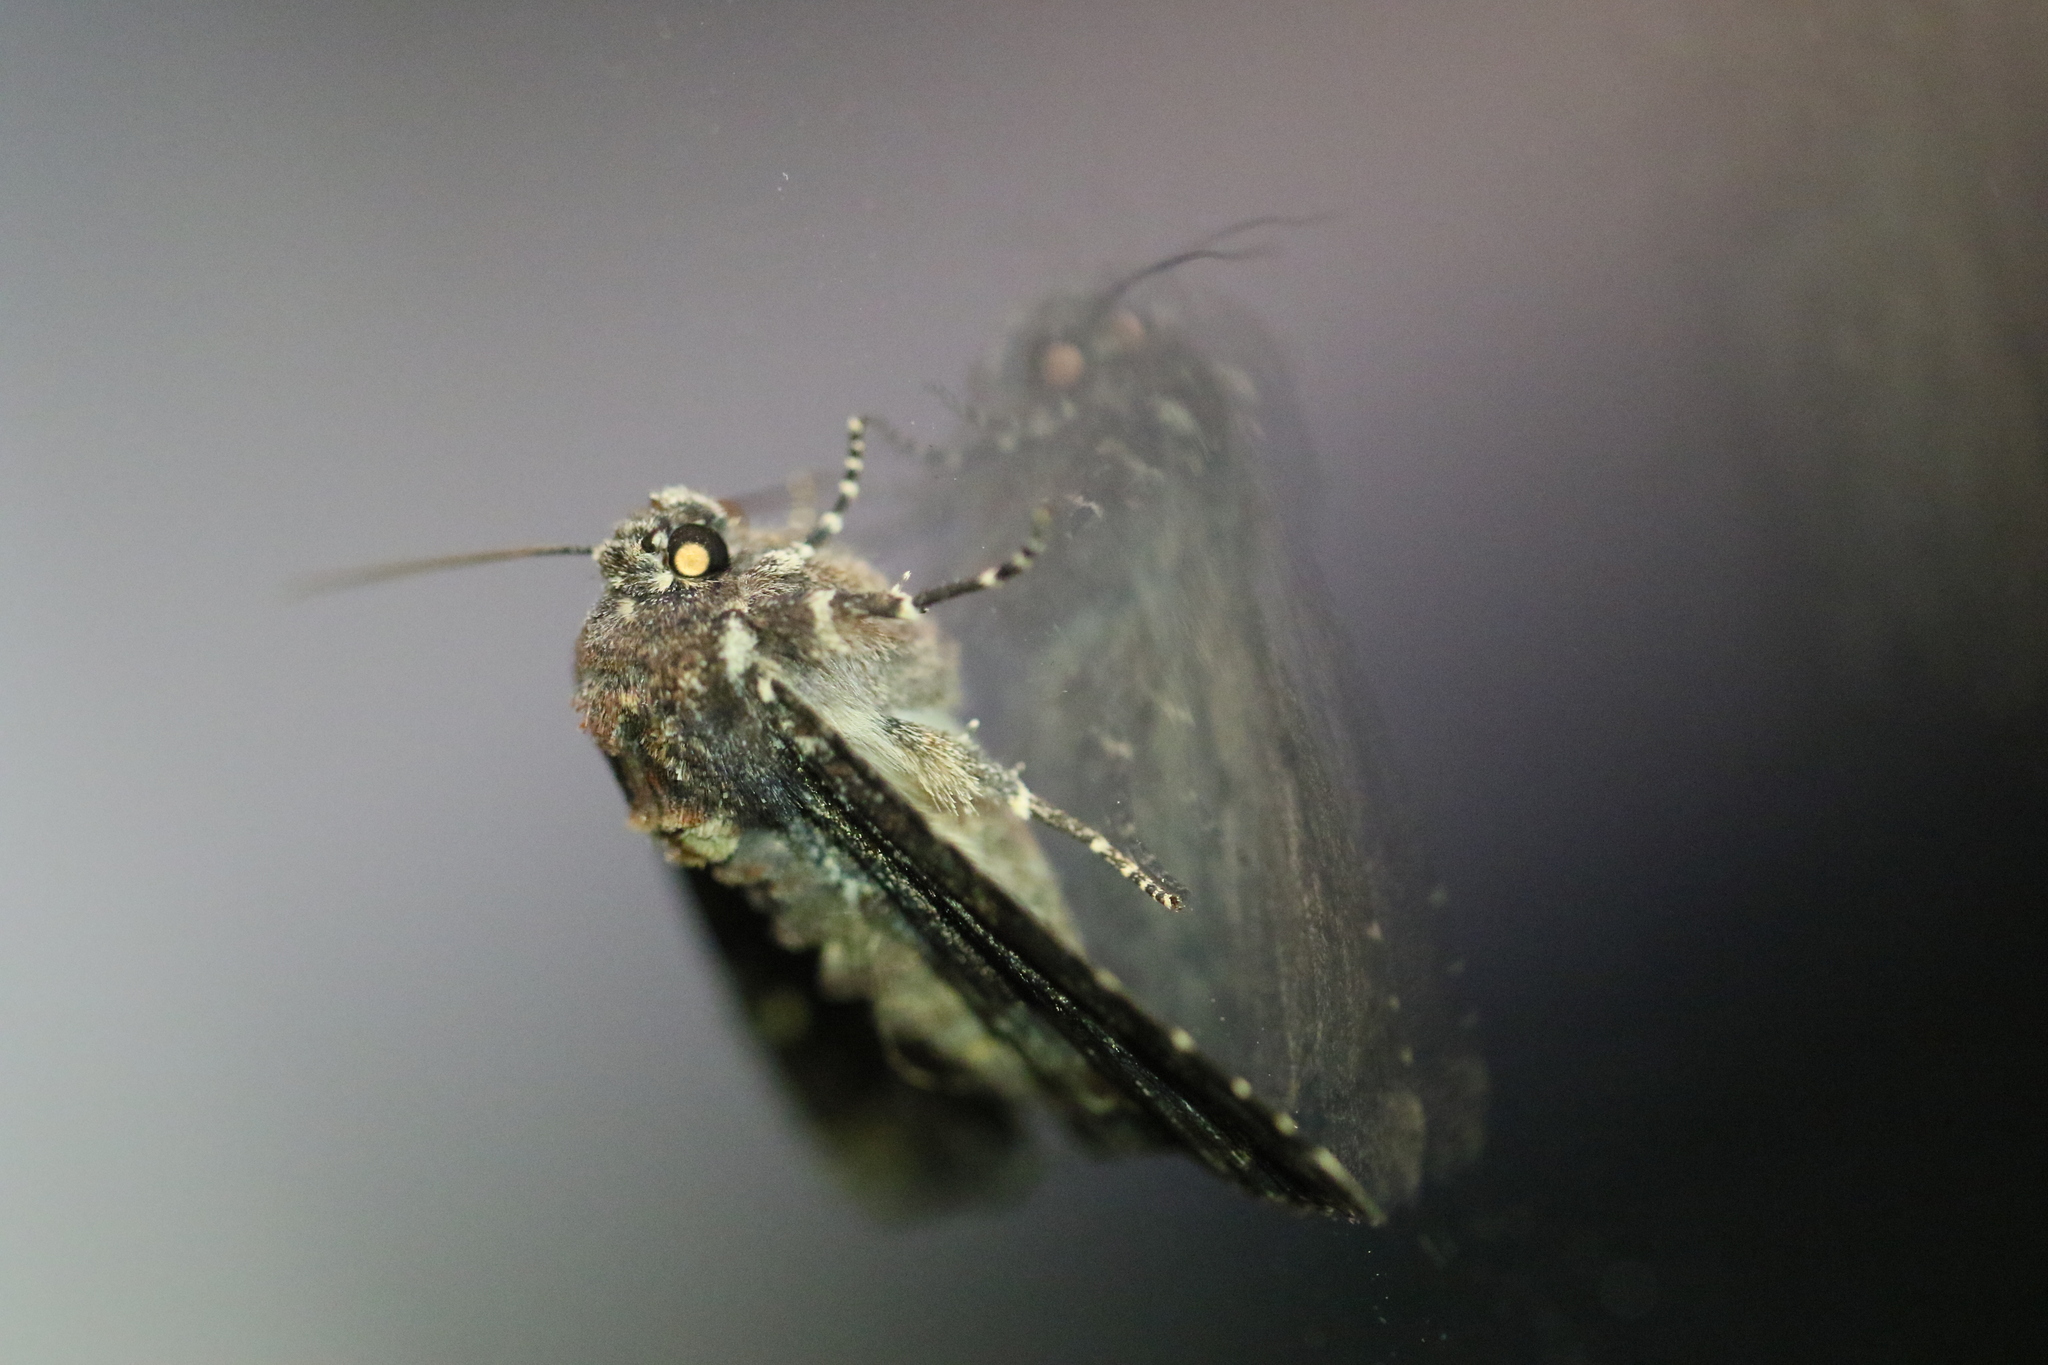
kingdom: Animalia
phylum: Arthropoda
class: Insecta
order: Lepidoptera
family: Noctuidae
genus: Apamea
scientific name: Apamea amputatrix
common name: Yellow-headed cutworm moth
